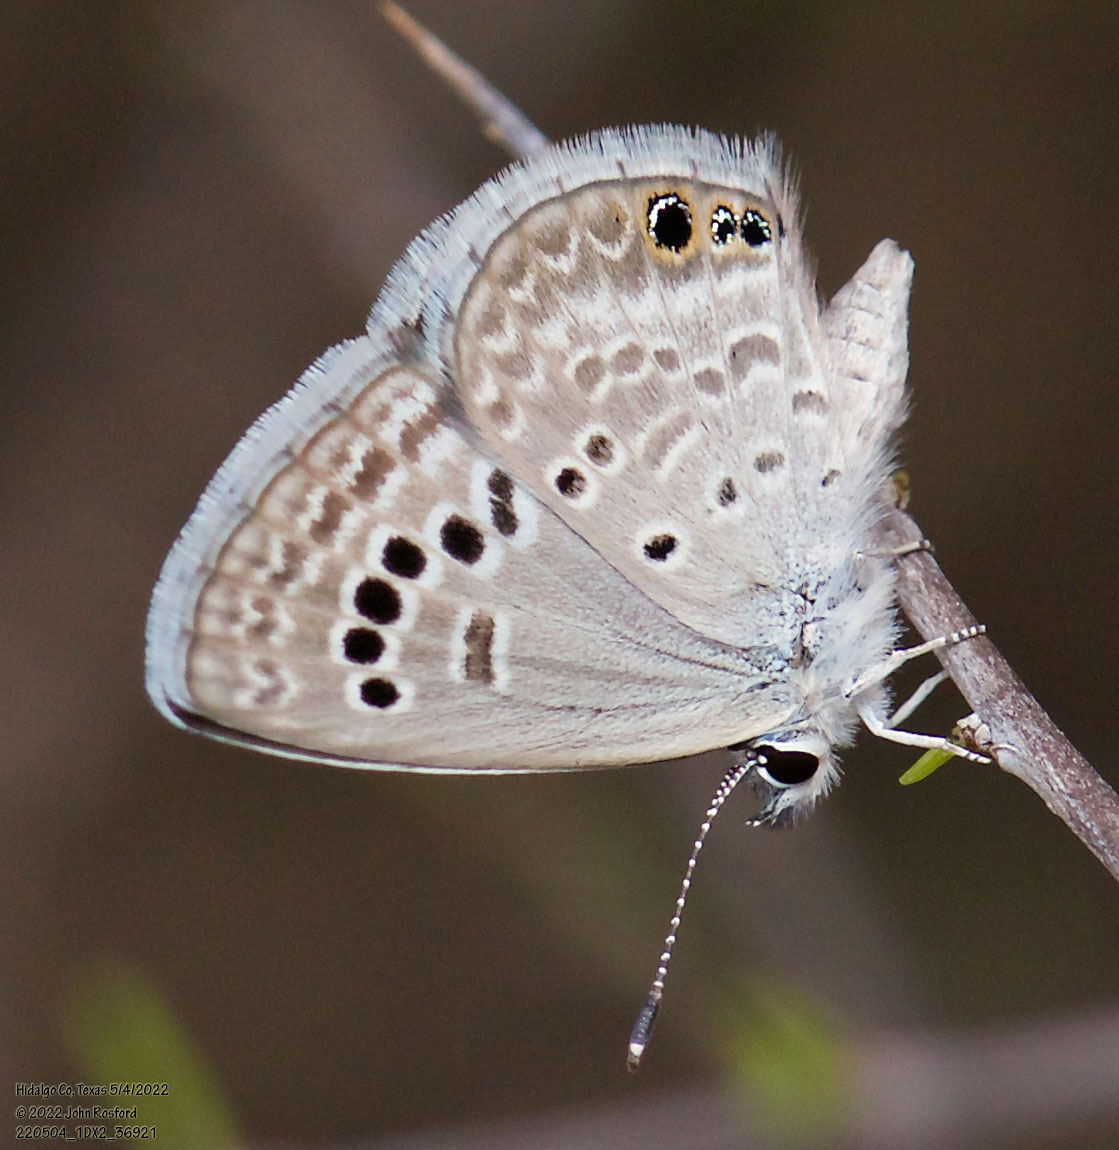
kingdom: Animalia
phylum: Arthropoda
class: Insecta
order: Lepidoptera
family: Lycaenidae
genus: Echinargus
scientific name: Echinargus isola
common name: Reakirt's blue
